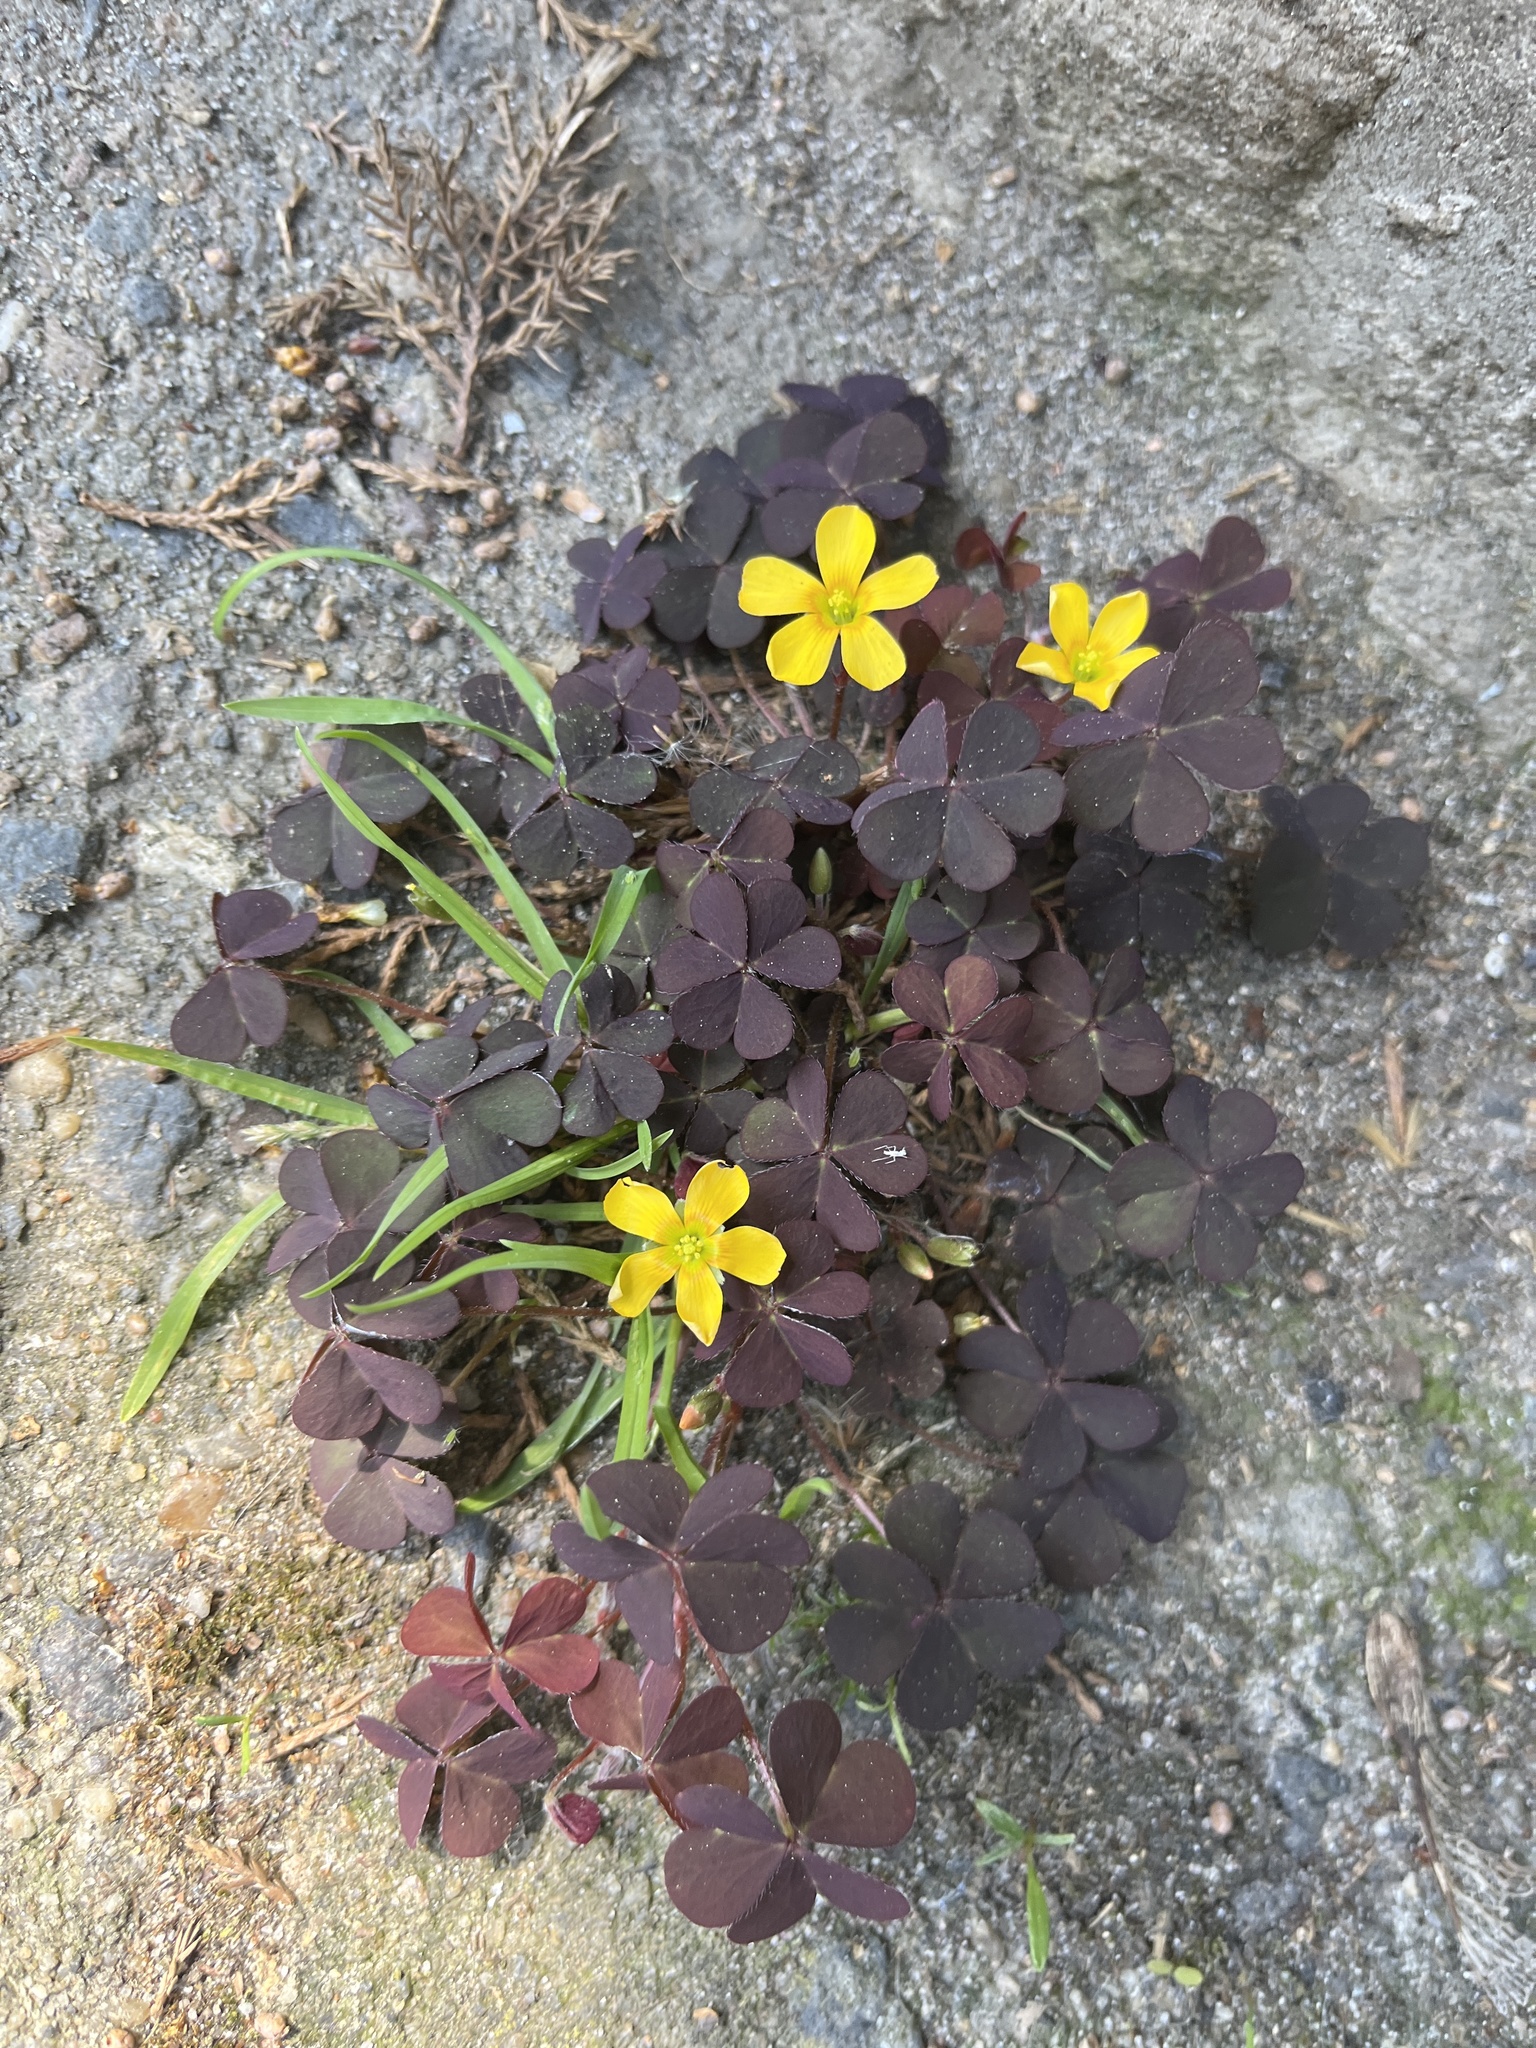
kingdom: Plantae
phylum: Tracheophyta
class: Magnoliopsida
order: Oxalidales
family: Oxalidaceae
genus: Oxalis
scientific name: Oxalis corniculata
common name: Procumbent yellow-sorrel
